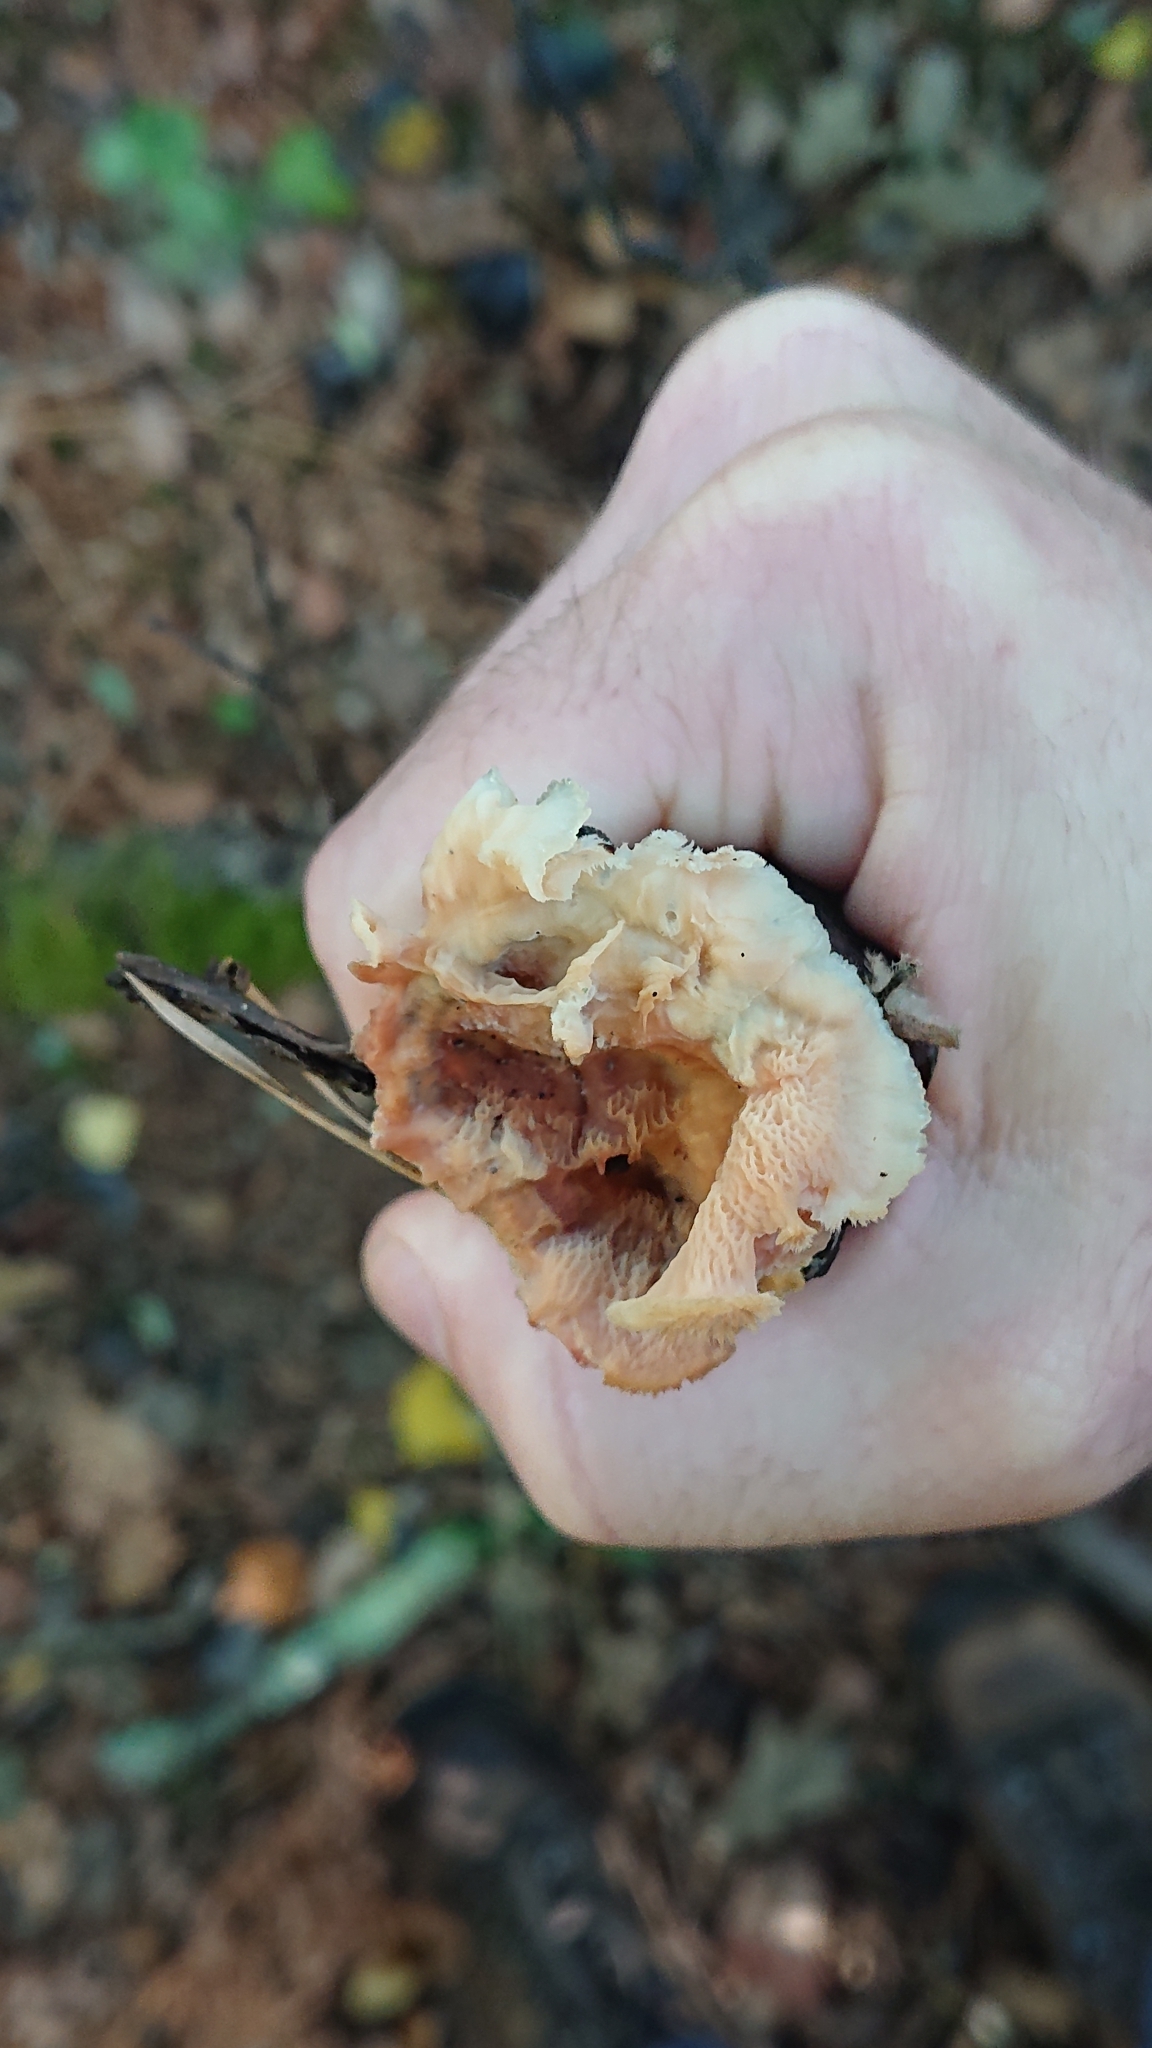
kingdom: Fungi
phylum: Basidiomycota
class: Agaricomycetes
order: Polyporales
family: Meruliaceae
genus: Phlebia
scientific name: Phlebia tremellosa
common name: Jelly rot
